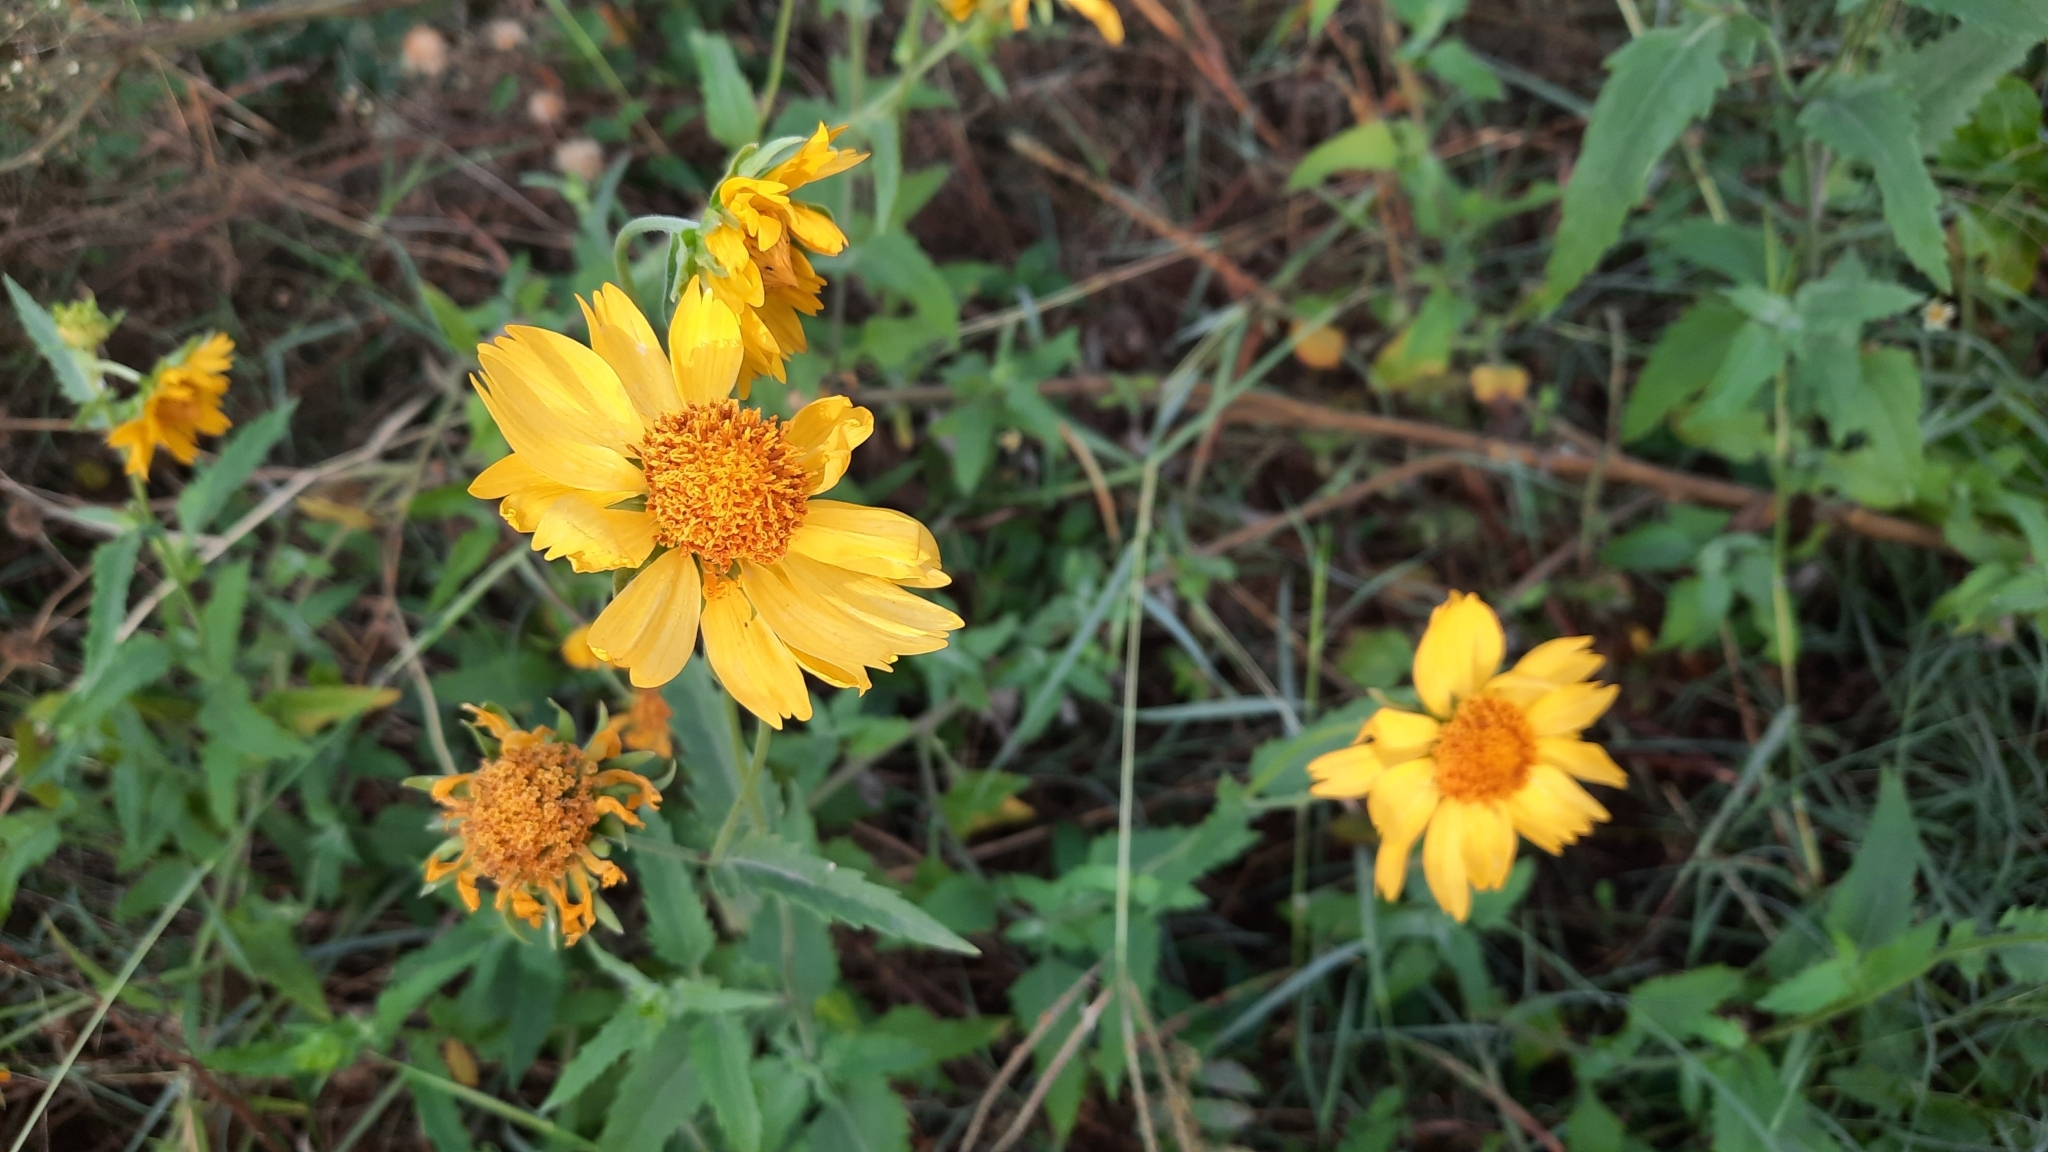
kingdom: Plantae
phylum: Tracheophyta
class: Magnoliopsida
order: Asterales
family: Asteraceae
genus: Verbesina
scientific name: Verbesina encelioides
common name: Golden crownbeard
